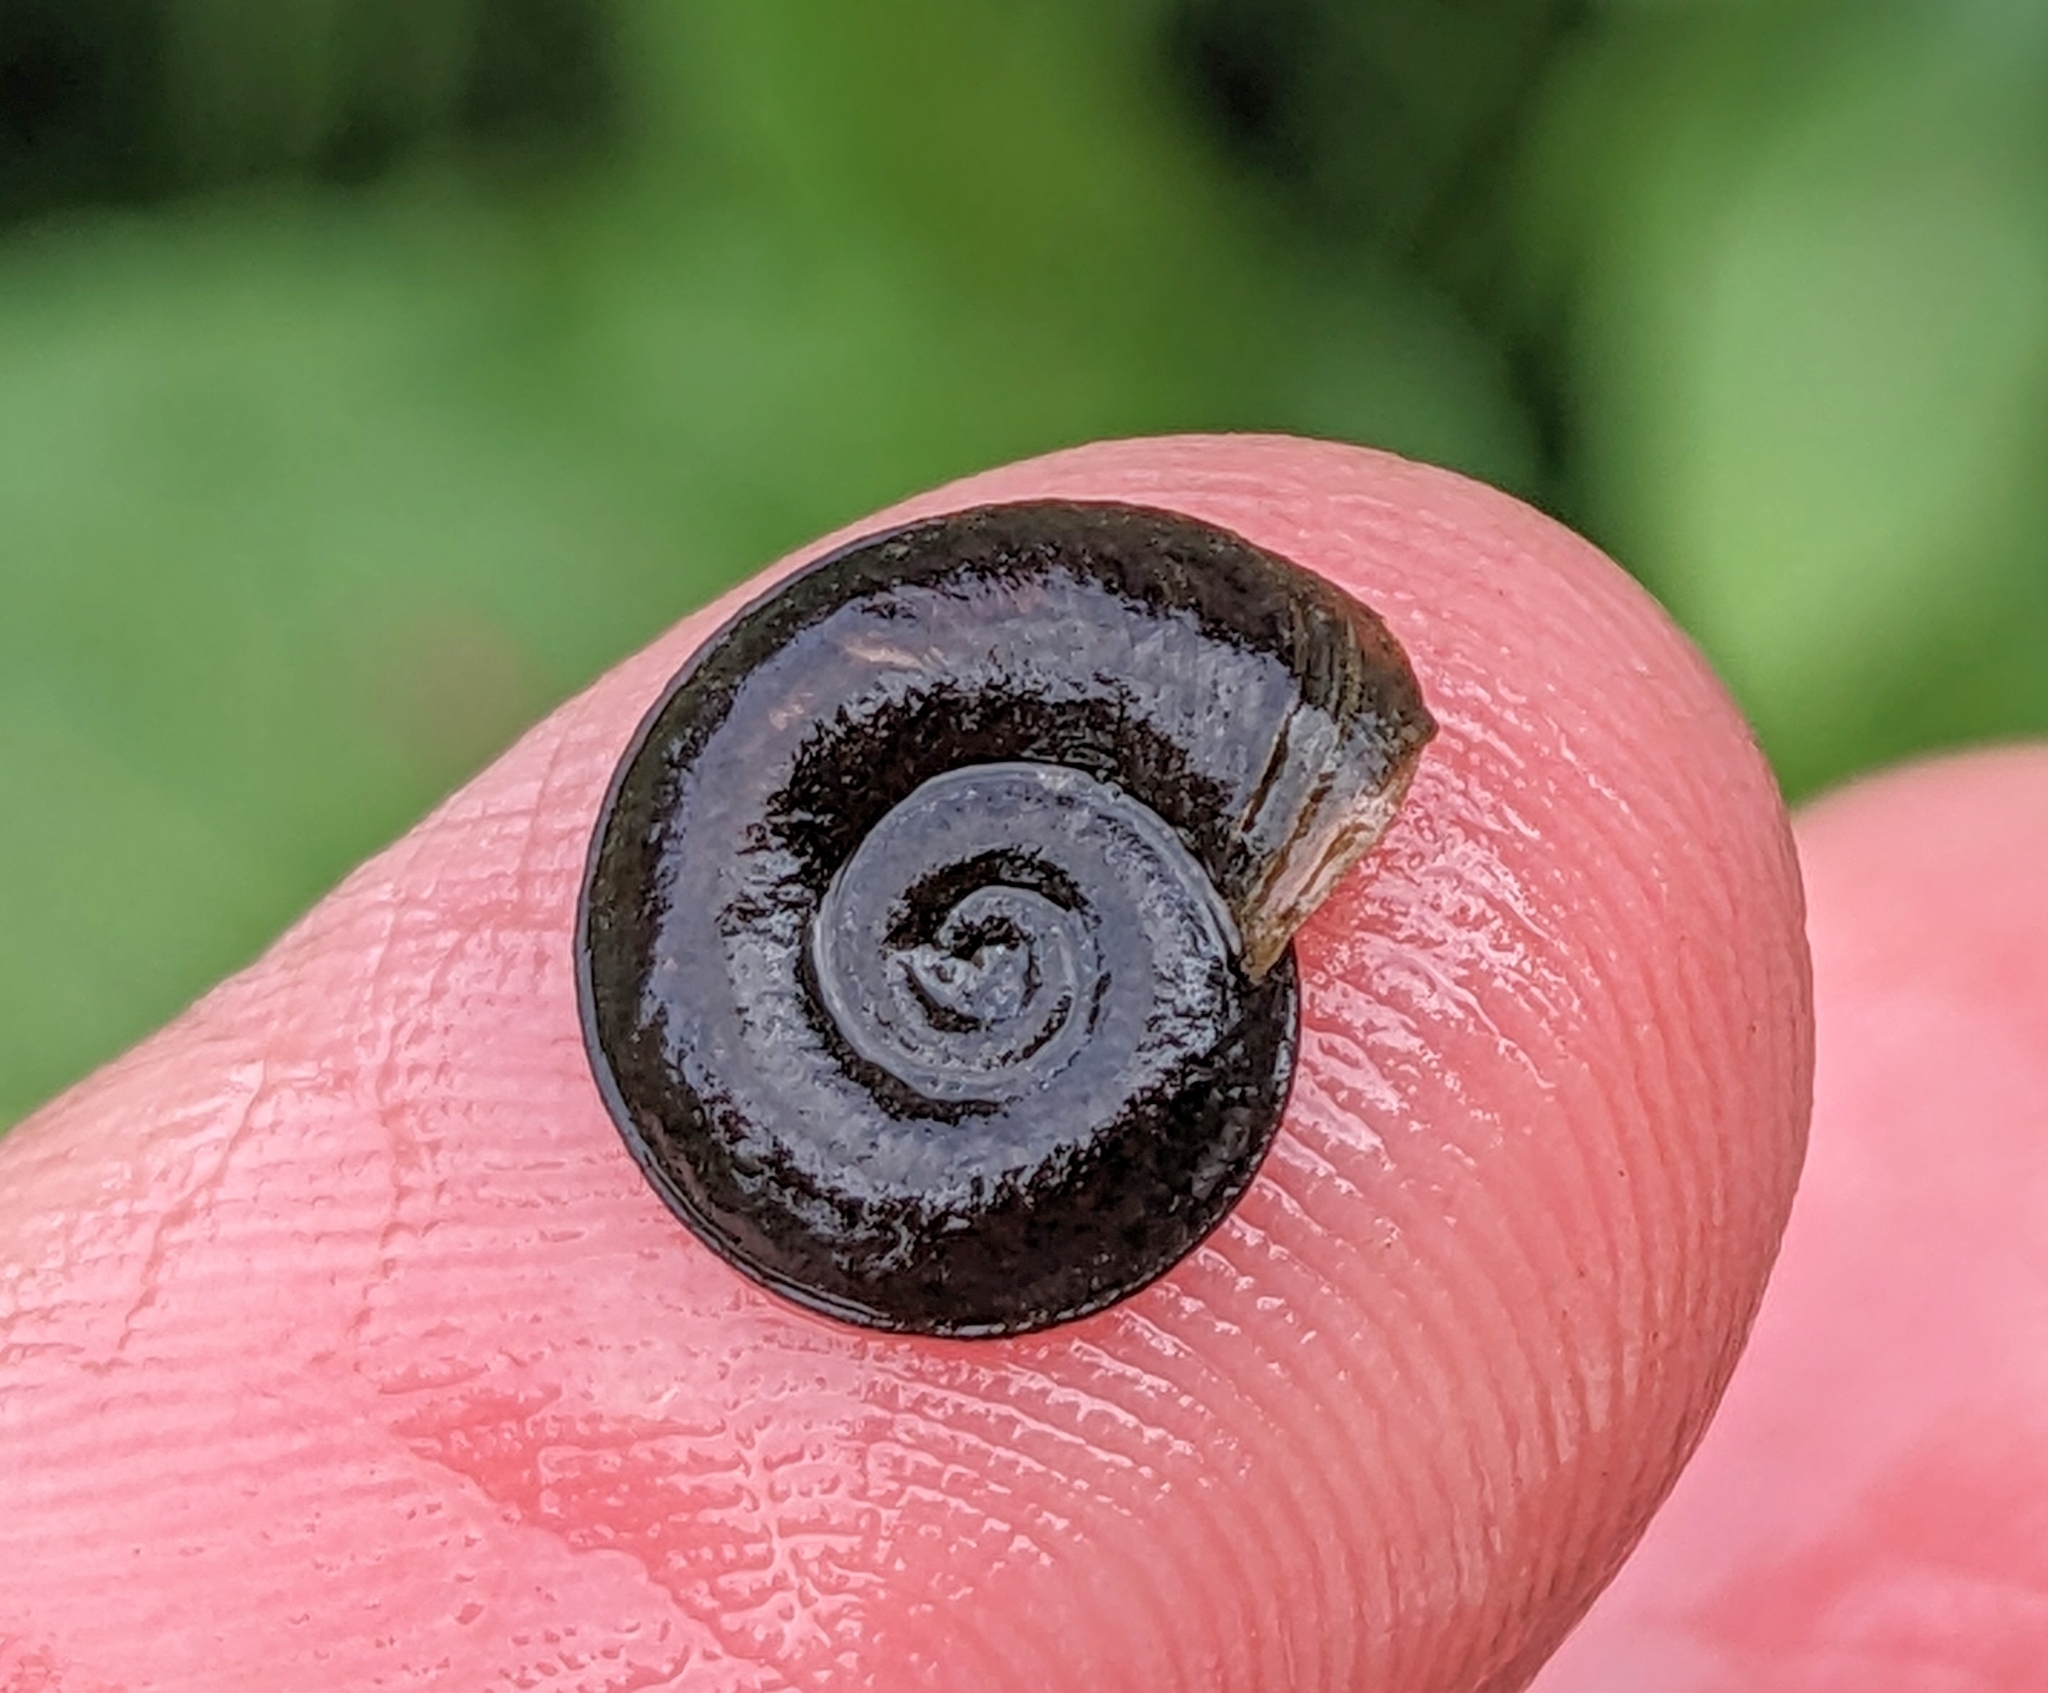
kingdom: Animalia
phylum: Mollusca
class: Gastropoda
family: Planorbidae
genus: Planorbis
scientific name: Planorbis carinatus
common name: Keeled ramshorn
